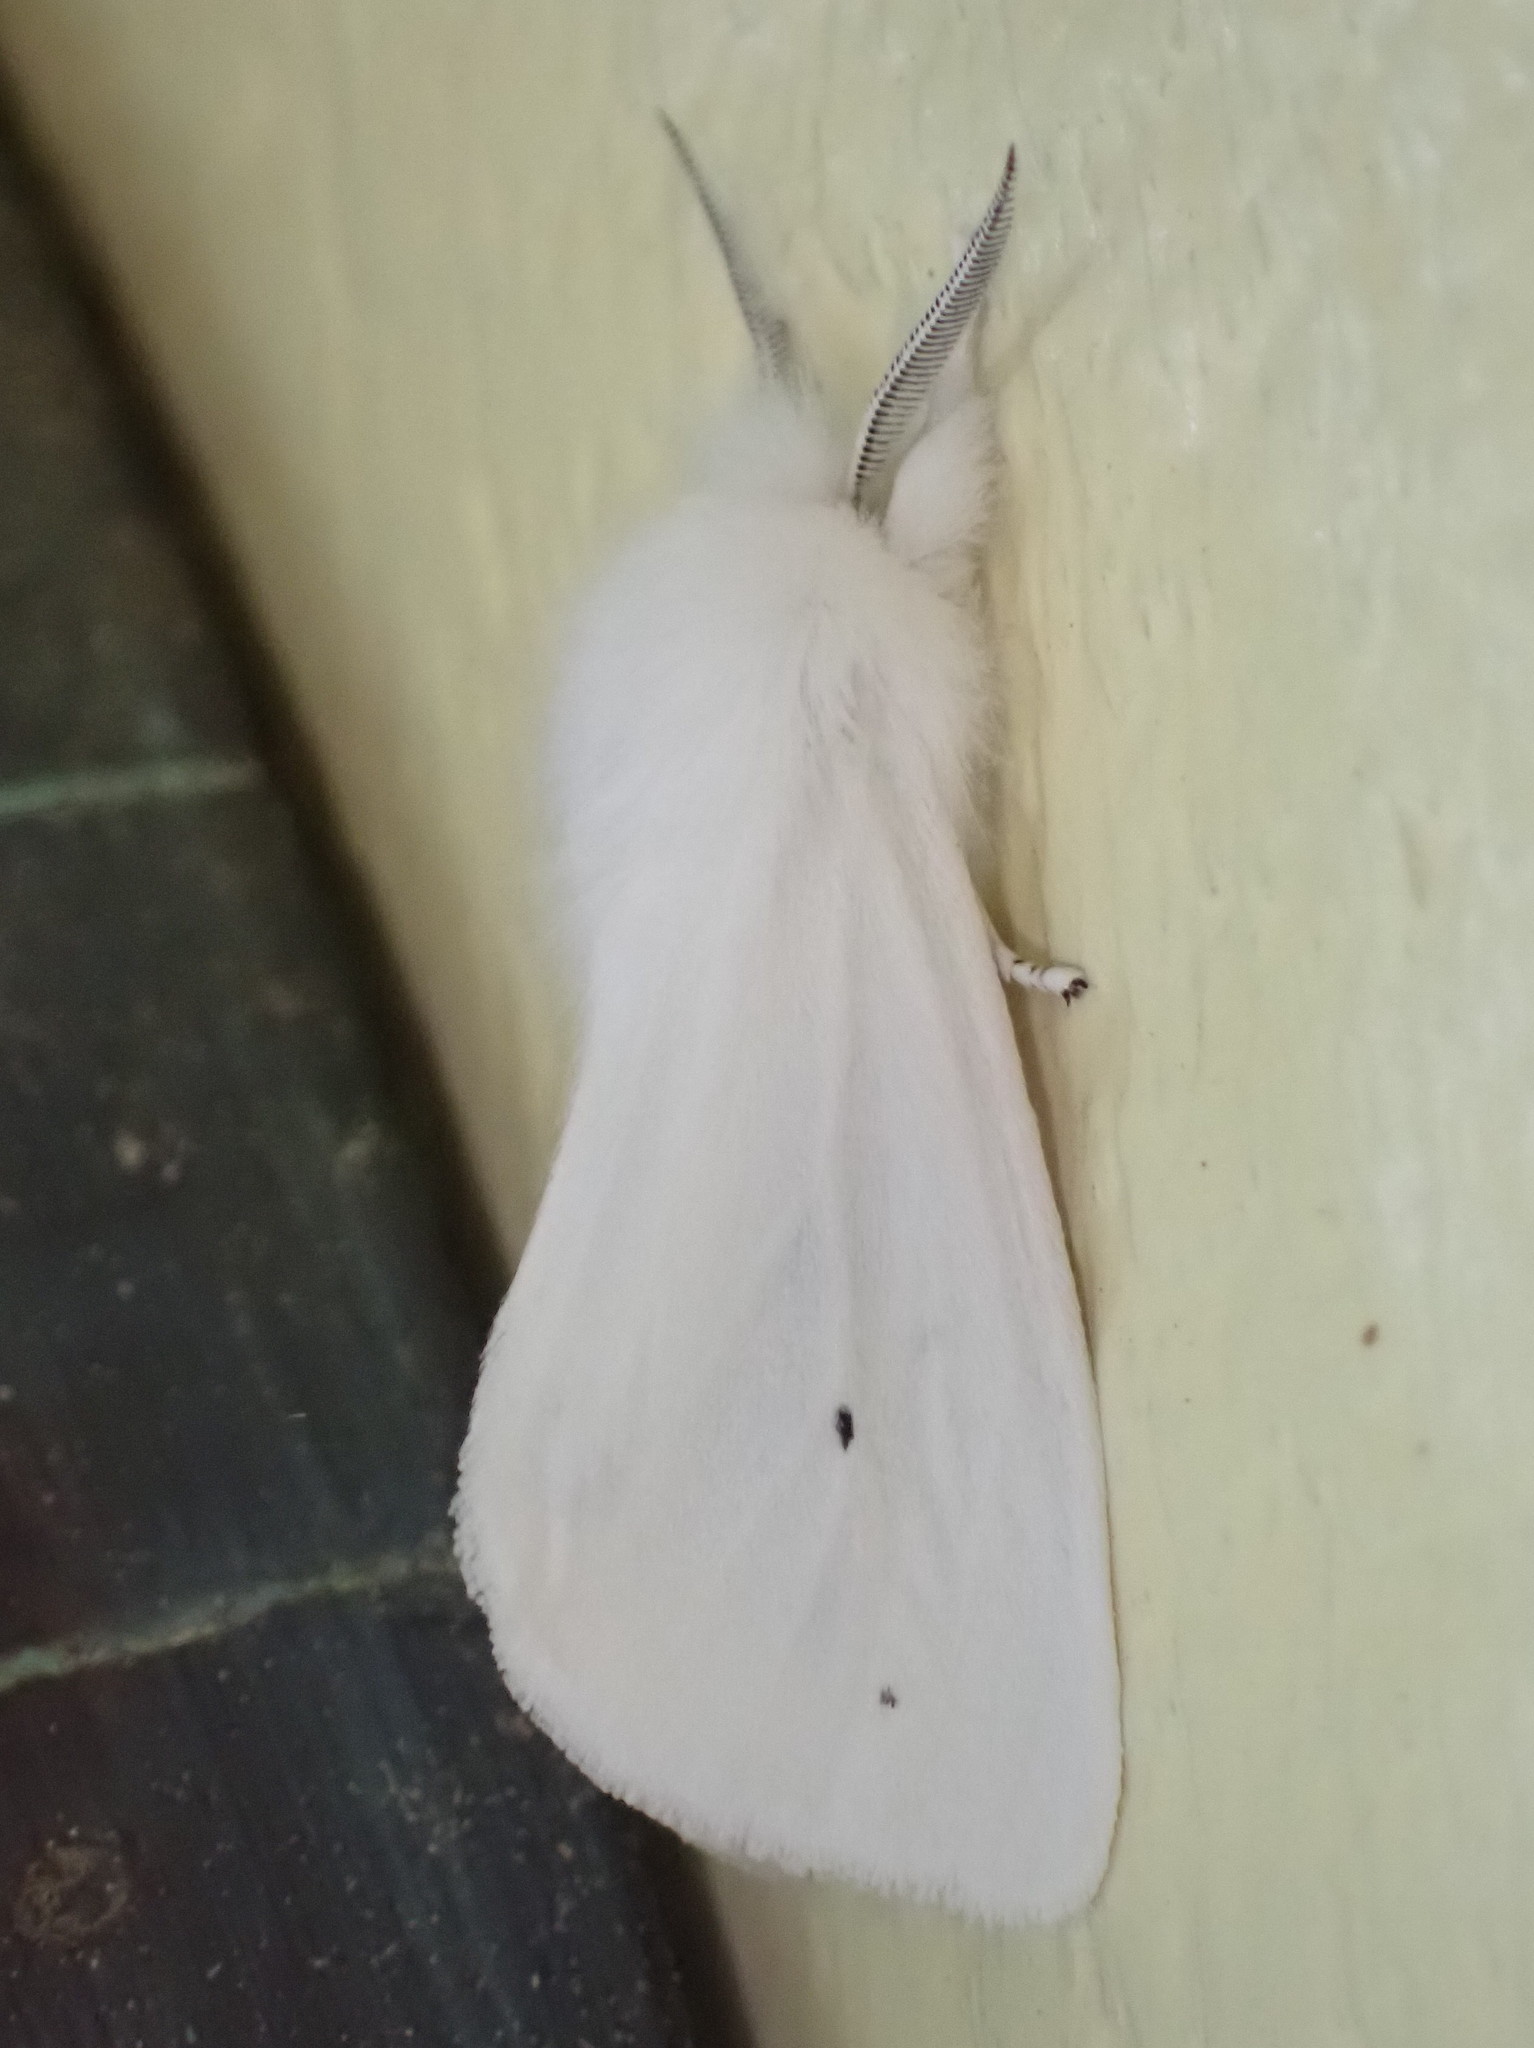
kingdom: Animalia
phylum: Arthropoda
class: Insecta
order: Lepidoptera
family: Erebidae
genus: Spilosoma
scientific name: Spilosoma virginica
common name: Virginia tiger moth
